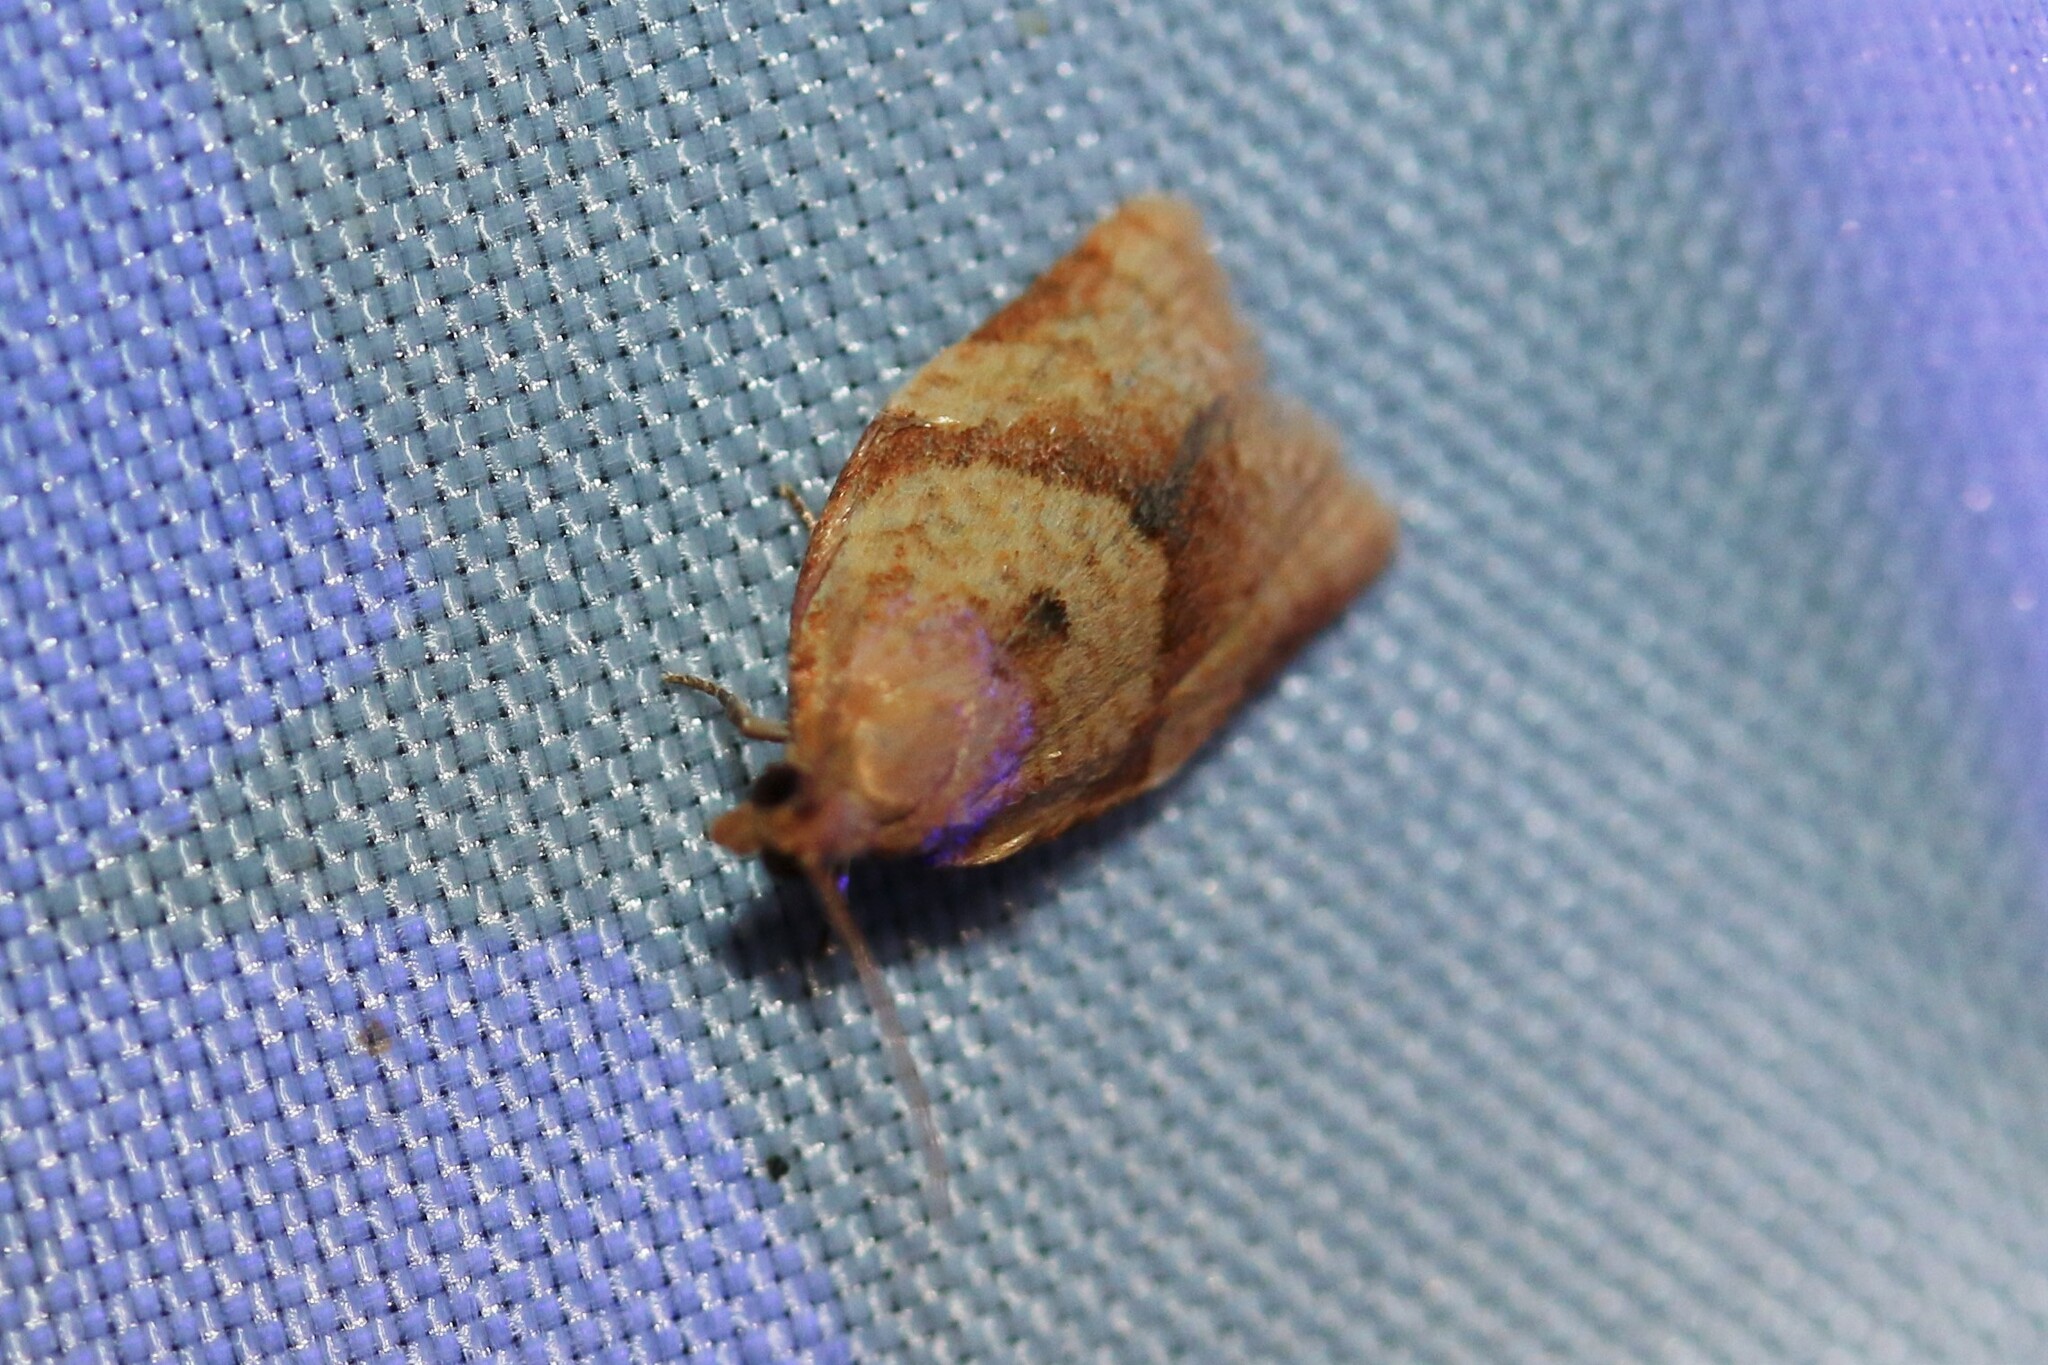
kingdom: Animalia
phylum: Arthropoda
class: Insecta
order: Lepidoptera
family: Tortricidae
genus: Clepsis
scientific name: Clepsis consimilana
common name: Privet tortrix
